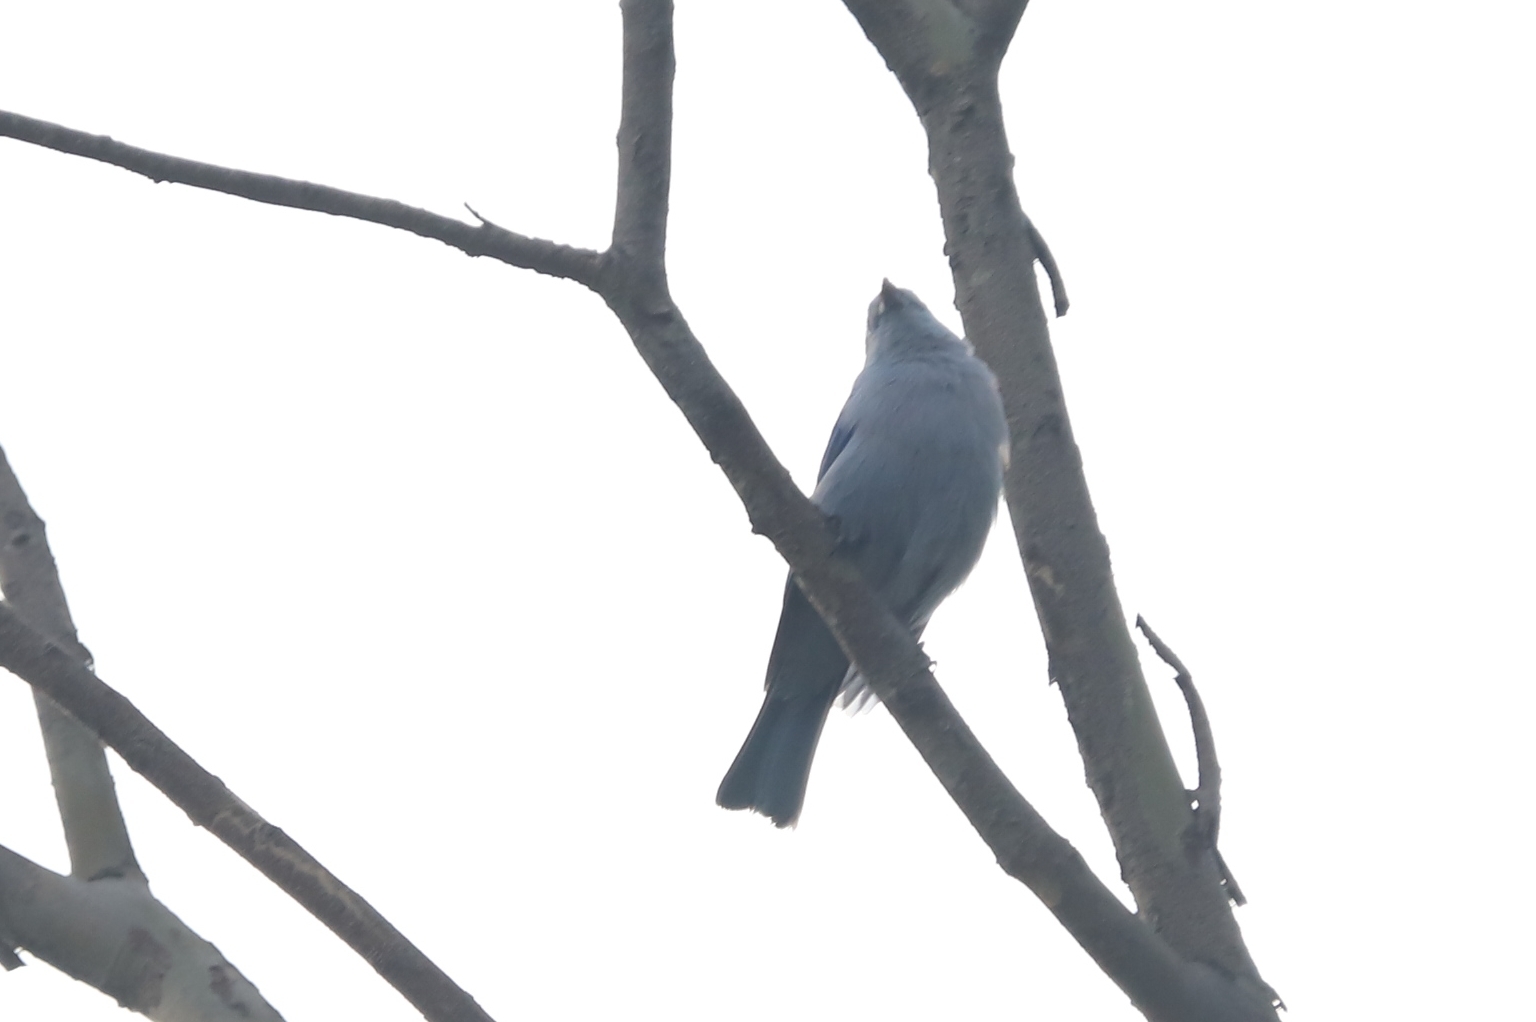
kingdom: Animalia
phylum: Chordata
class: Aves
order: Passeriformes
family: Thraupidae
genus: Thraupis
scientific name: Thraupis episcopus
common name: Blue-grey tanager
